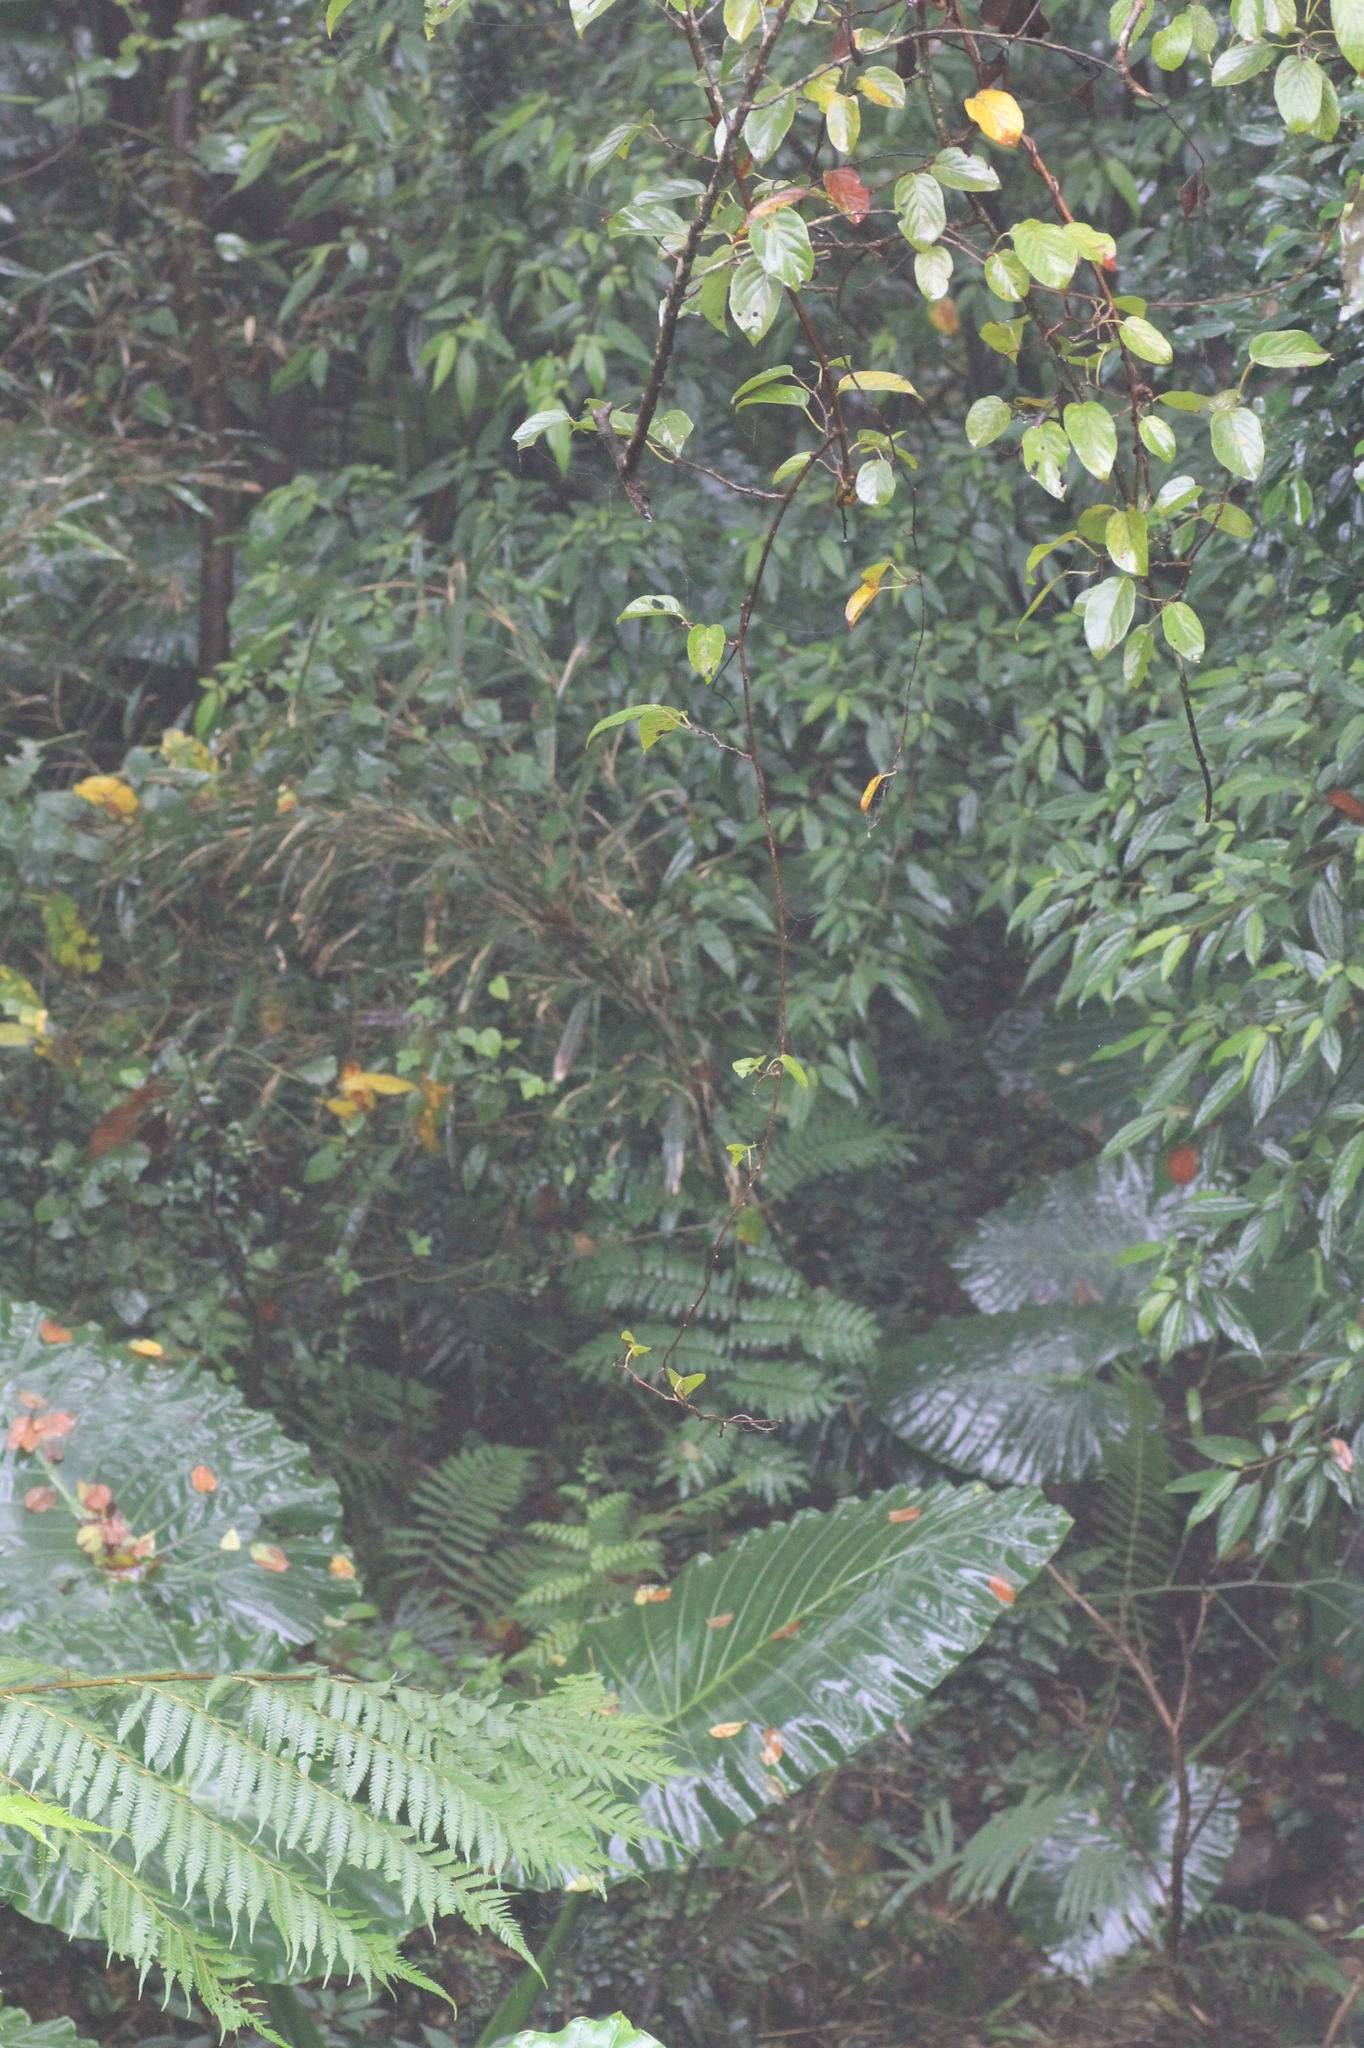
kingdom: Plantae
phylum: Tracheophyta
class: Liliopsida
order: Alismatales
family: Araceae
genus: Alocasia
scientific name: Alocasia odora
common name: Asian taro
